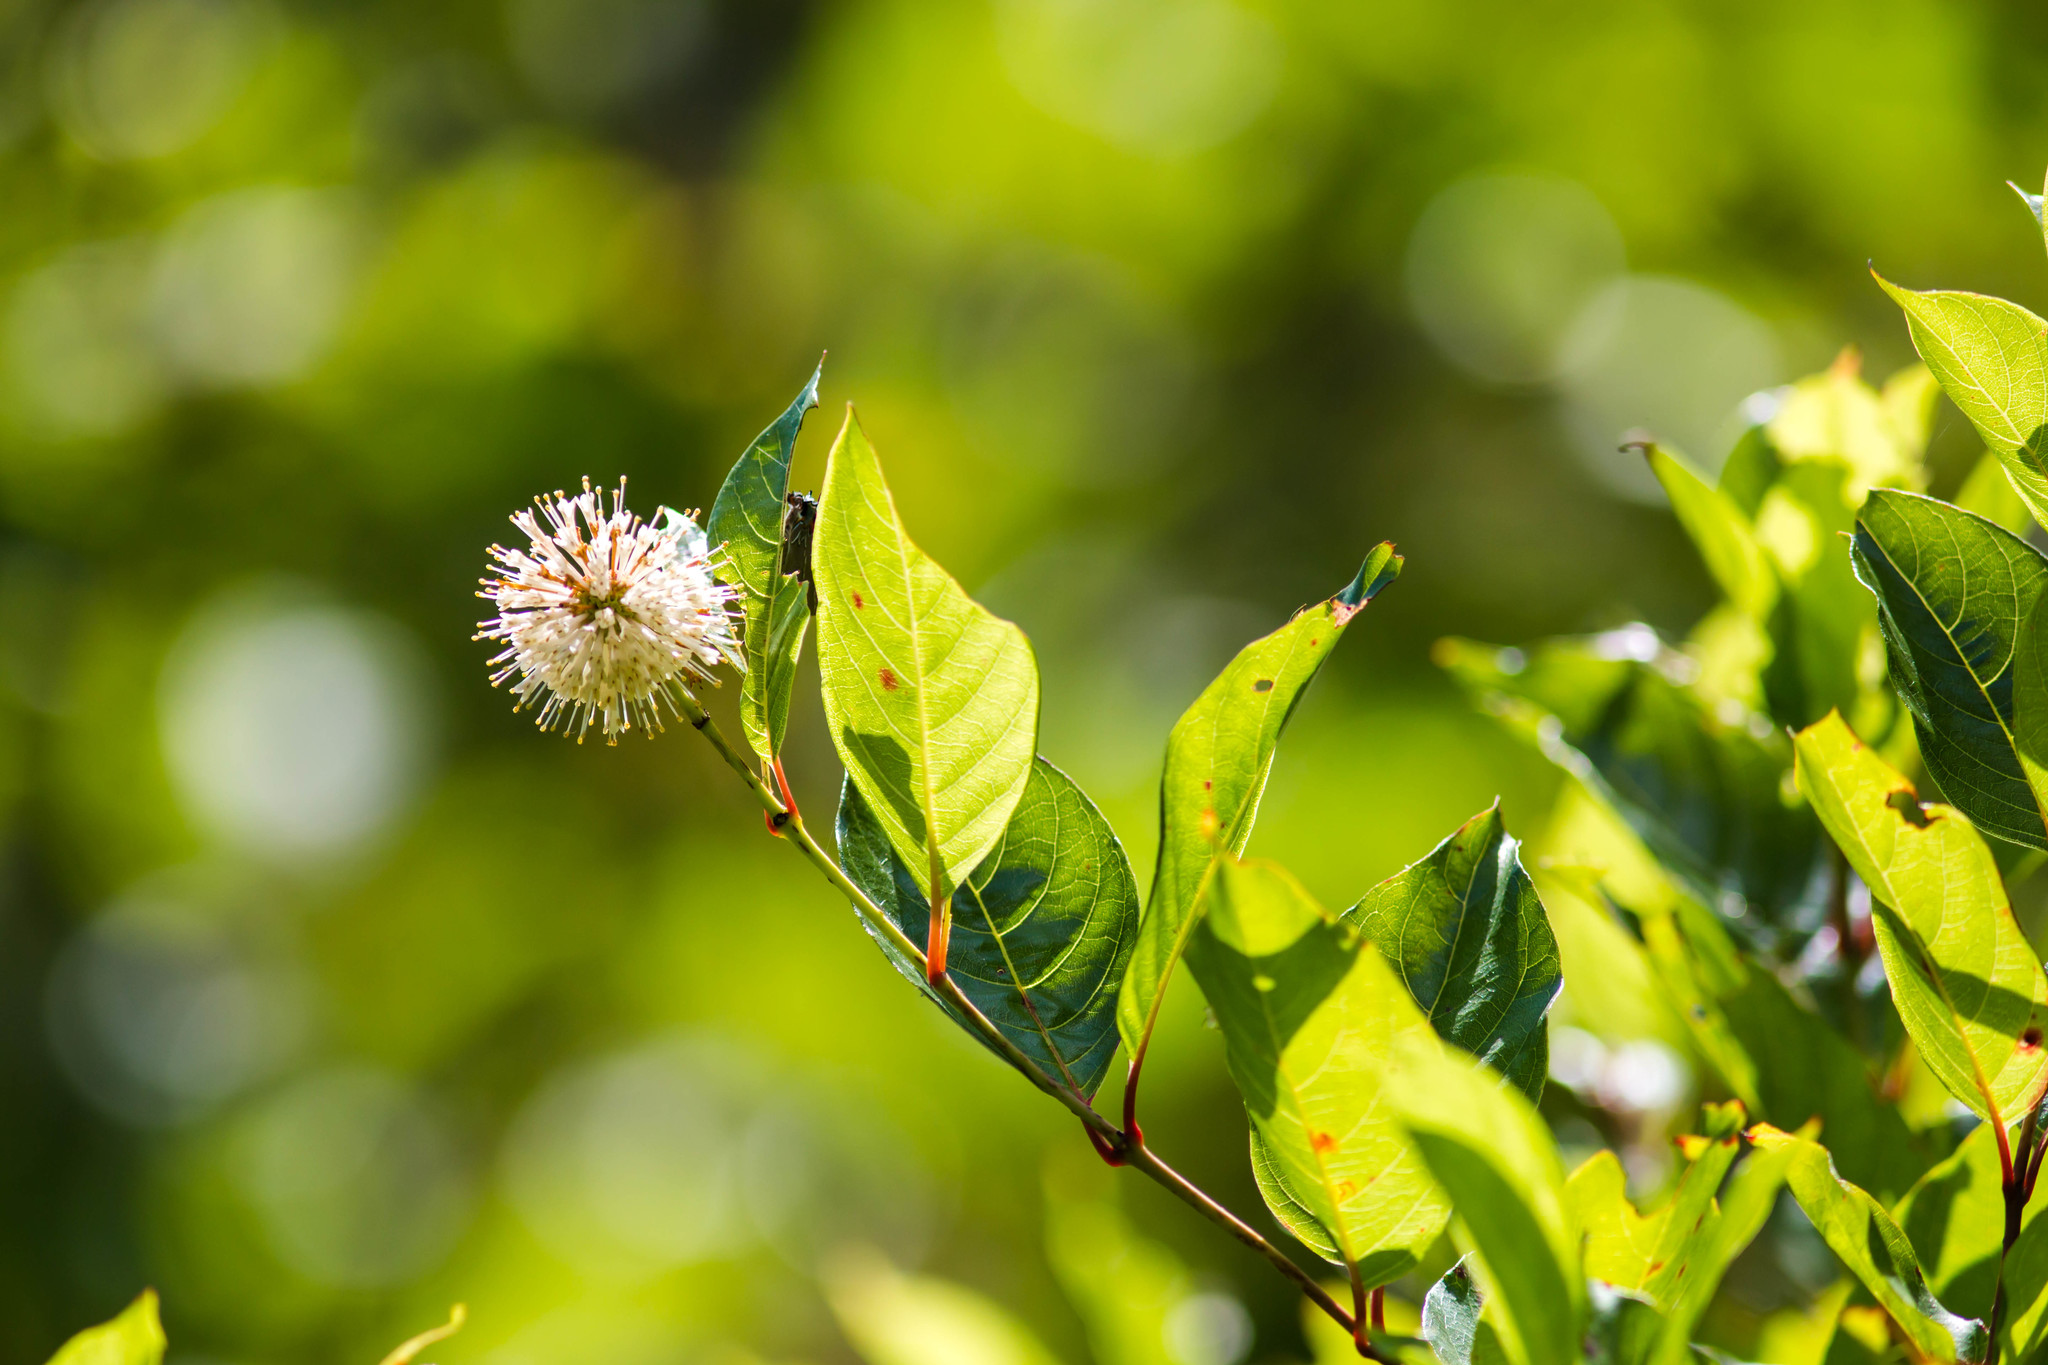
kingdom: Plantae
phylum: Tracheophyta
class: Magnoliopsida
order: Gentianales
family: Rubiaceae
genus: Cephalanthus
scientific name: Cephalanthus occidentalis
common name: Button-willow
